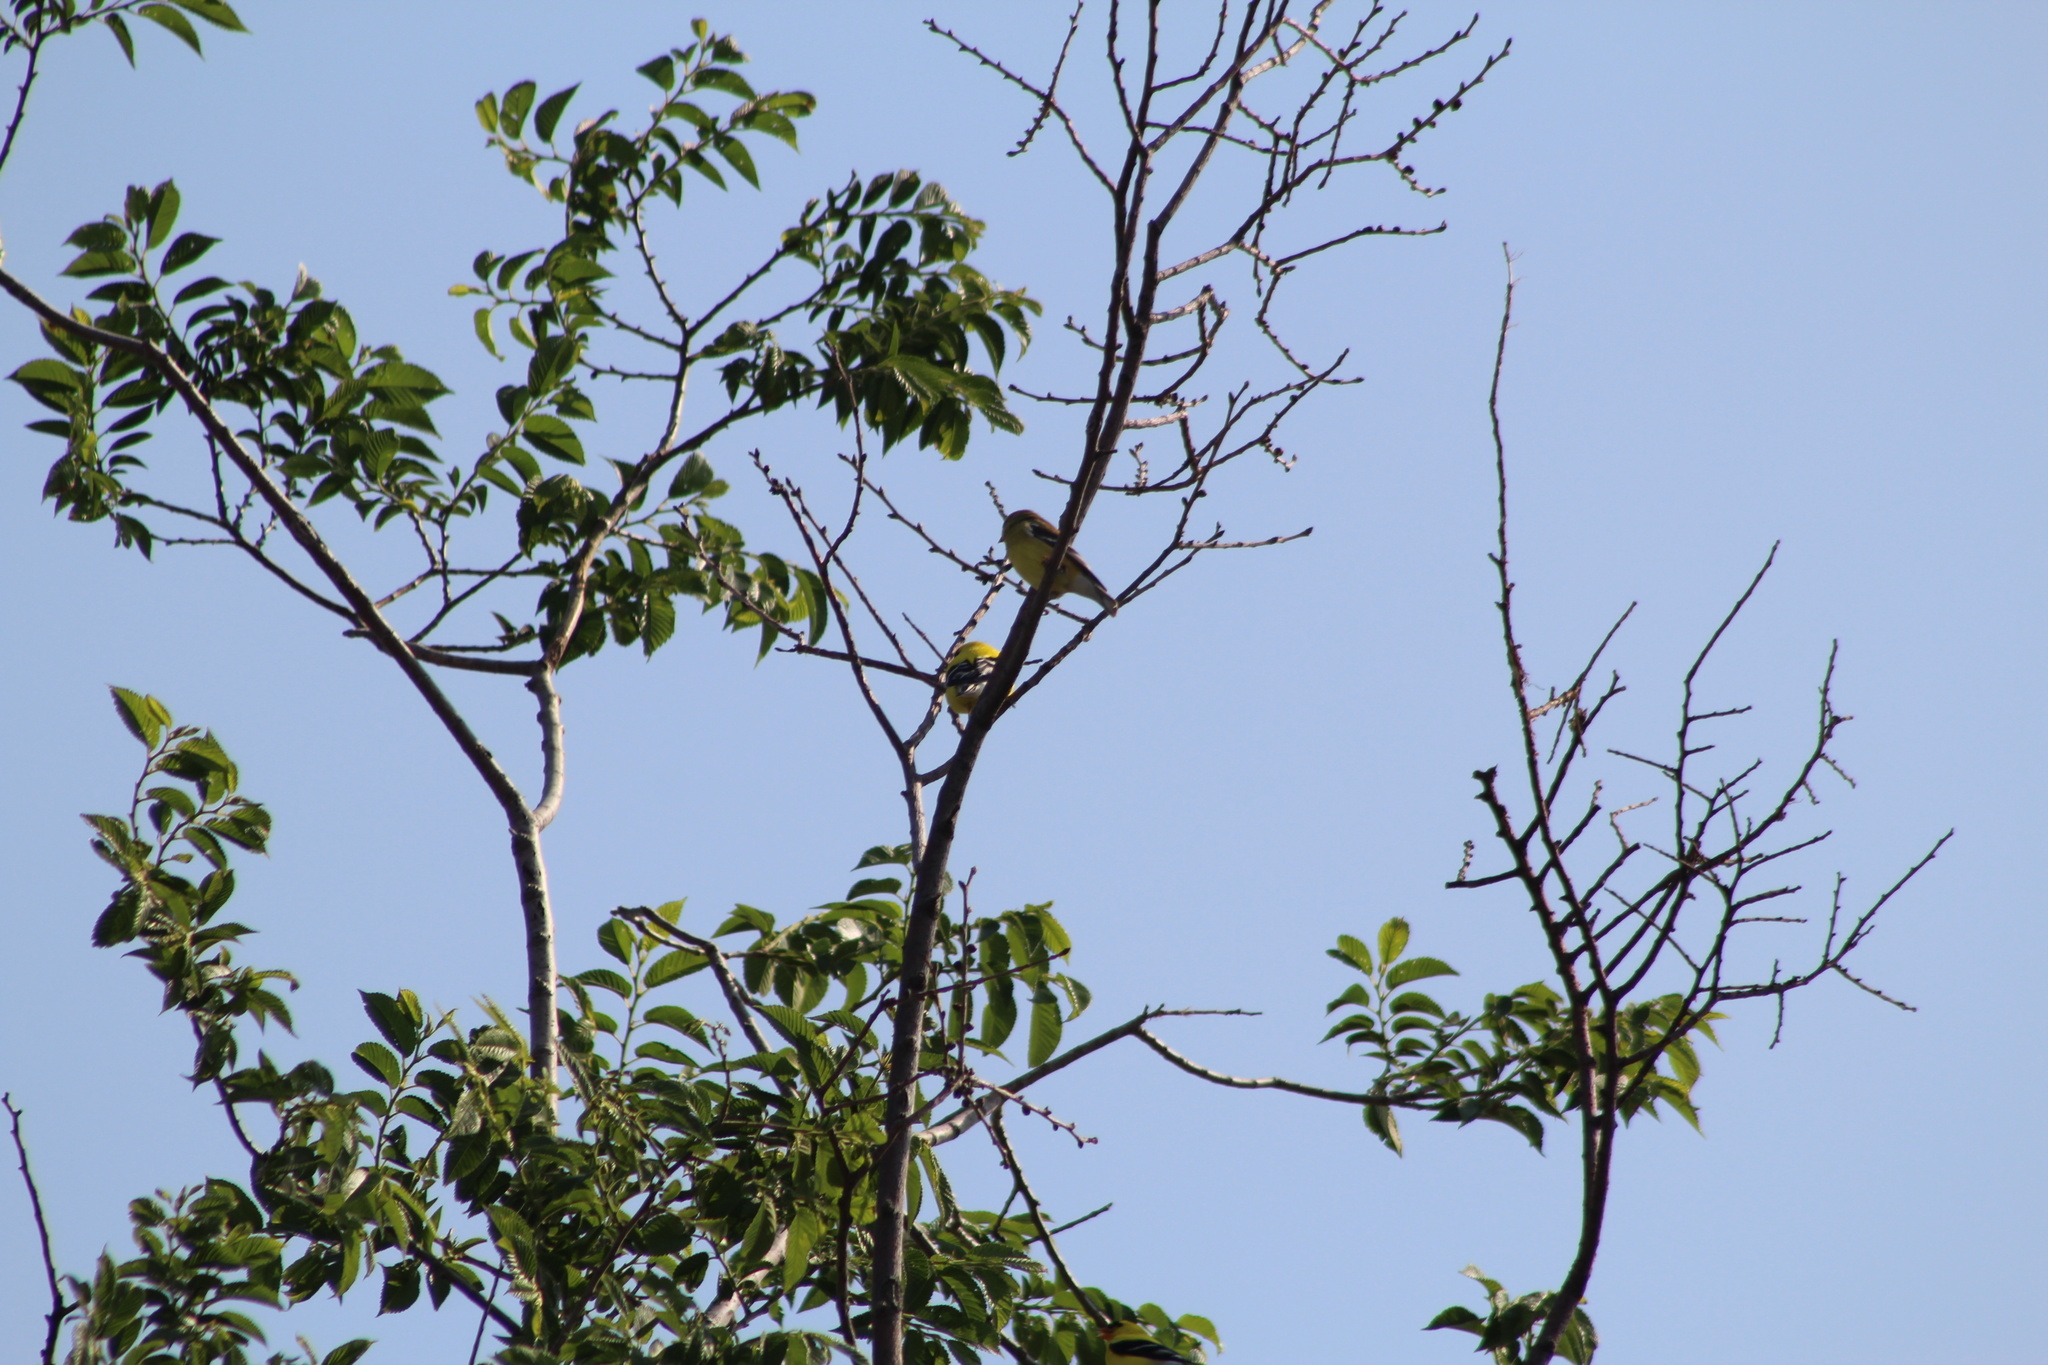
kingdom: Animalia
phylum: Chordata
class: Aves
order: Passeriformes
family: Fringillidae
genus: Spinus
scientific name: Spinus tristis
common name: American goldfinch
